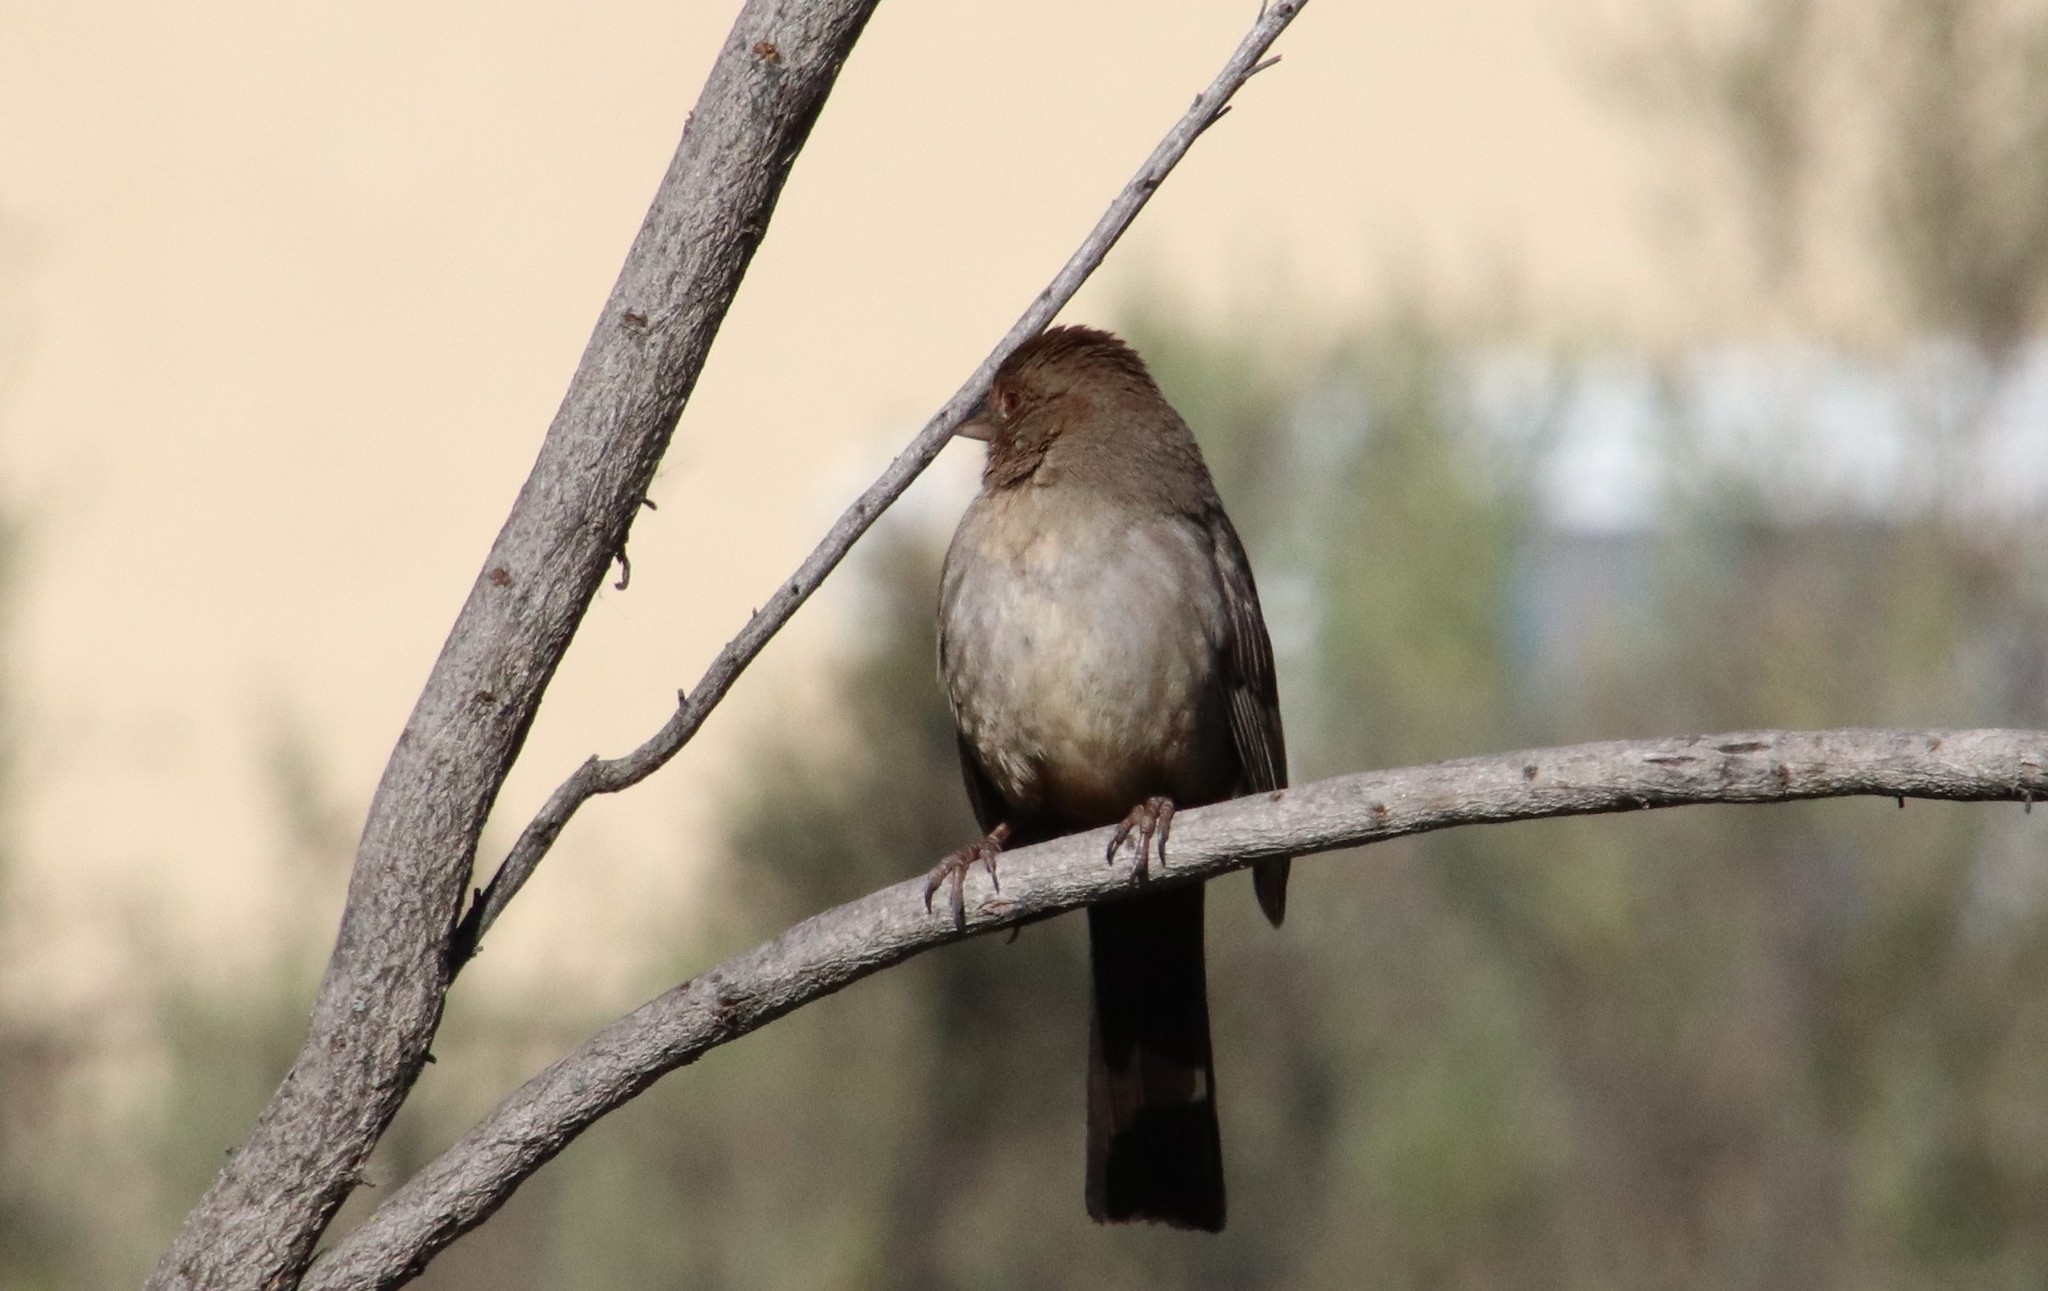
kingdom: Animalia
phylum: Chordata
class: Aves
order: Passeriformes
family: Passerellidae
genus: Melozone
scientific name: Melozone crissalis
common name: California towhee
